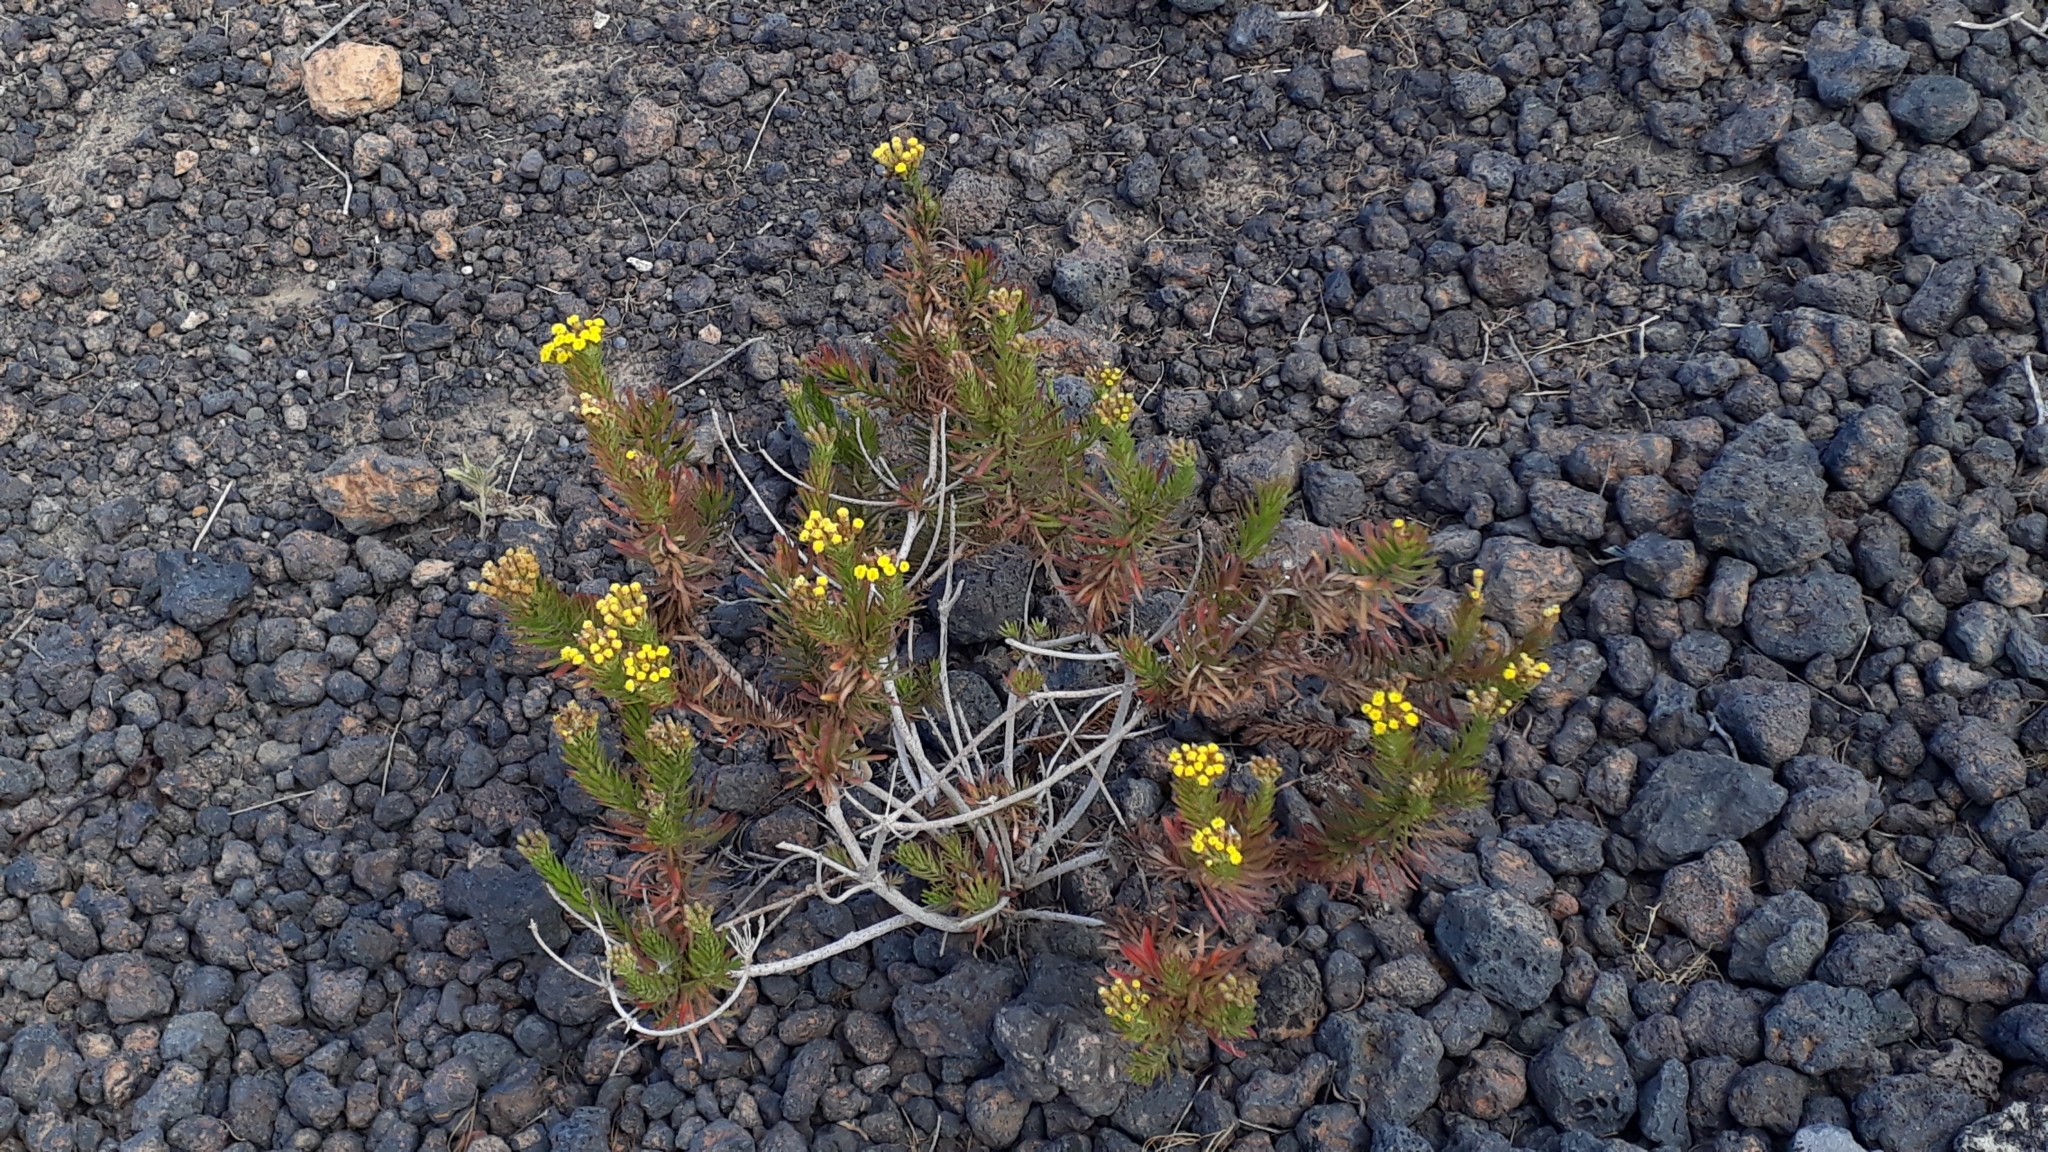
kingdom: Plantae
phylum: Tracheophyta
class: Magnoliopsida
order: Asterales
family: Asteraceae
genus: Allagopappus
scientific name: Allagopappus canariensis
